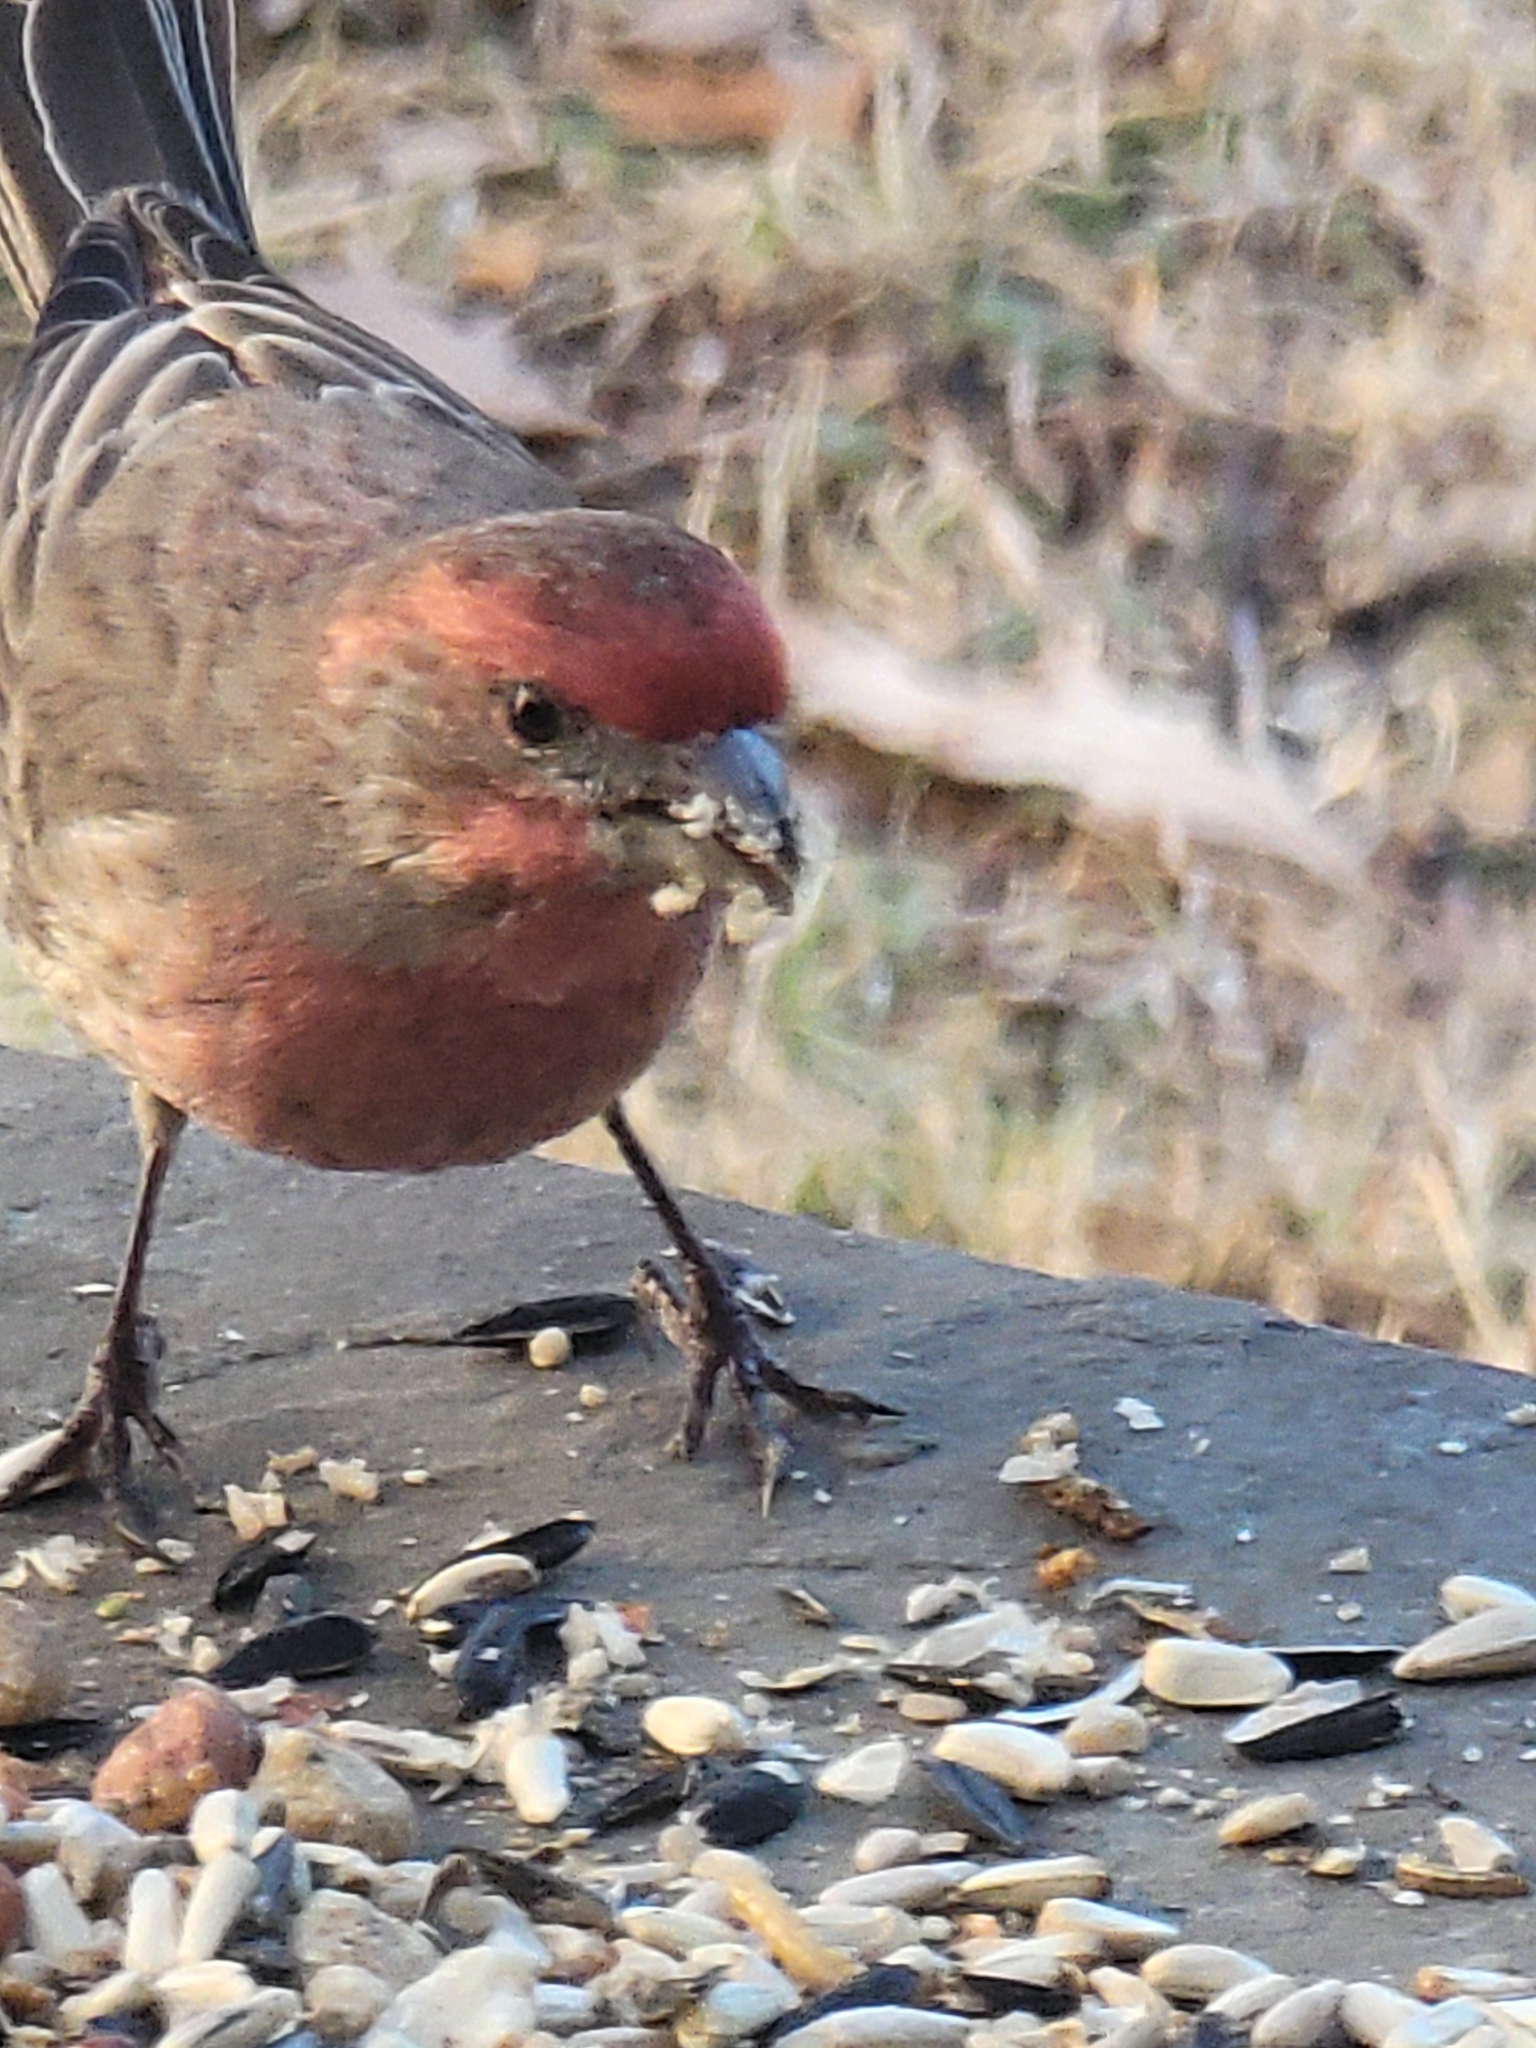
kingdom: Animalia
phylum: Chordata
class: Aves
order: Passeriformes
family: Fringillidae
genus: Haemorhous
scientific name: Haemorhous mexicanus
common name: House finch
